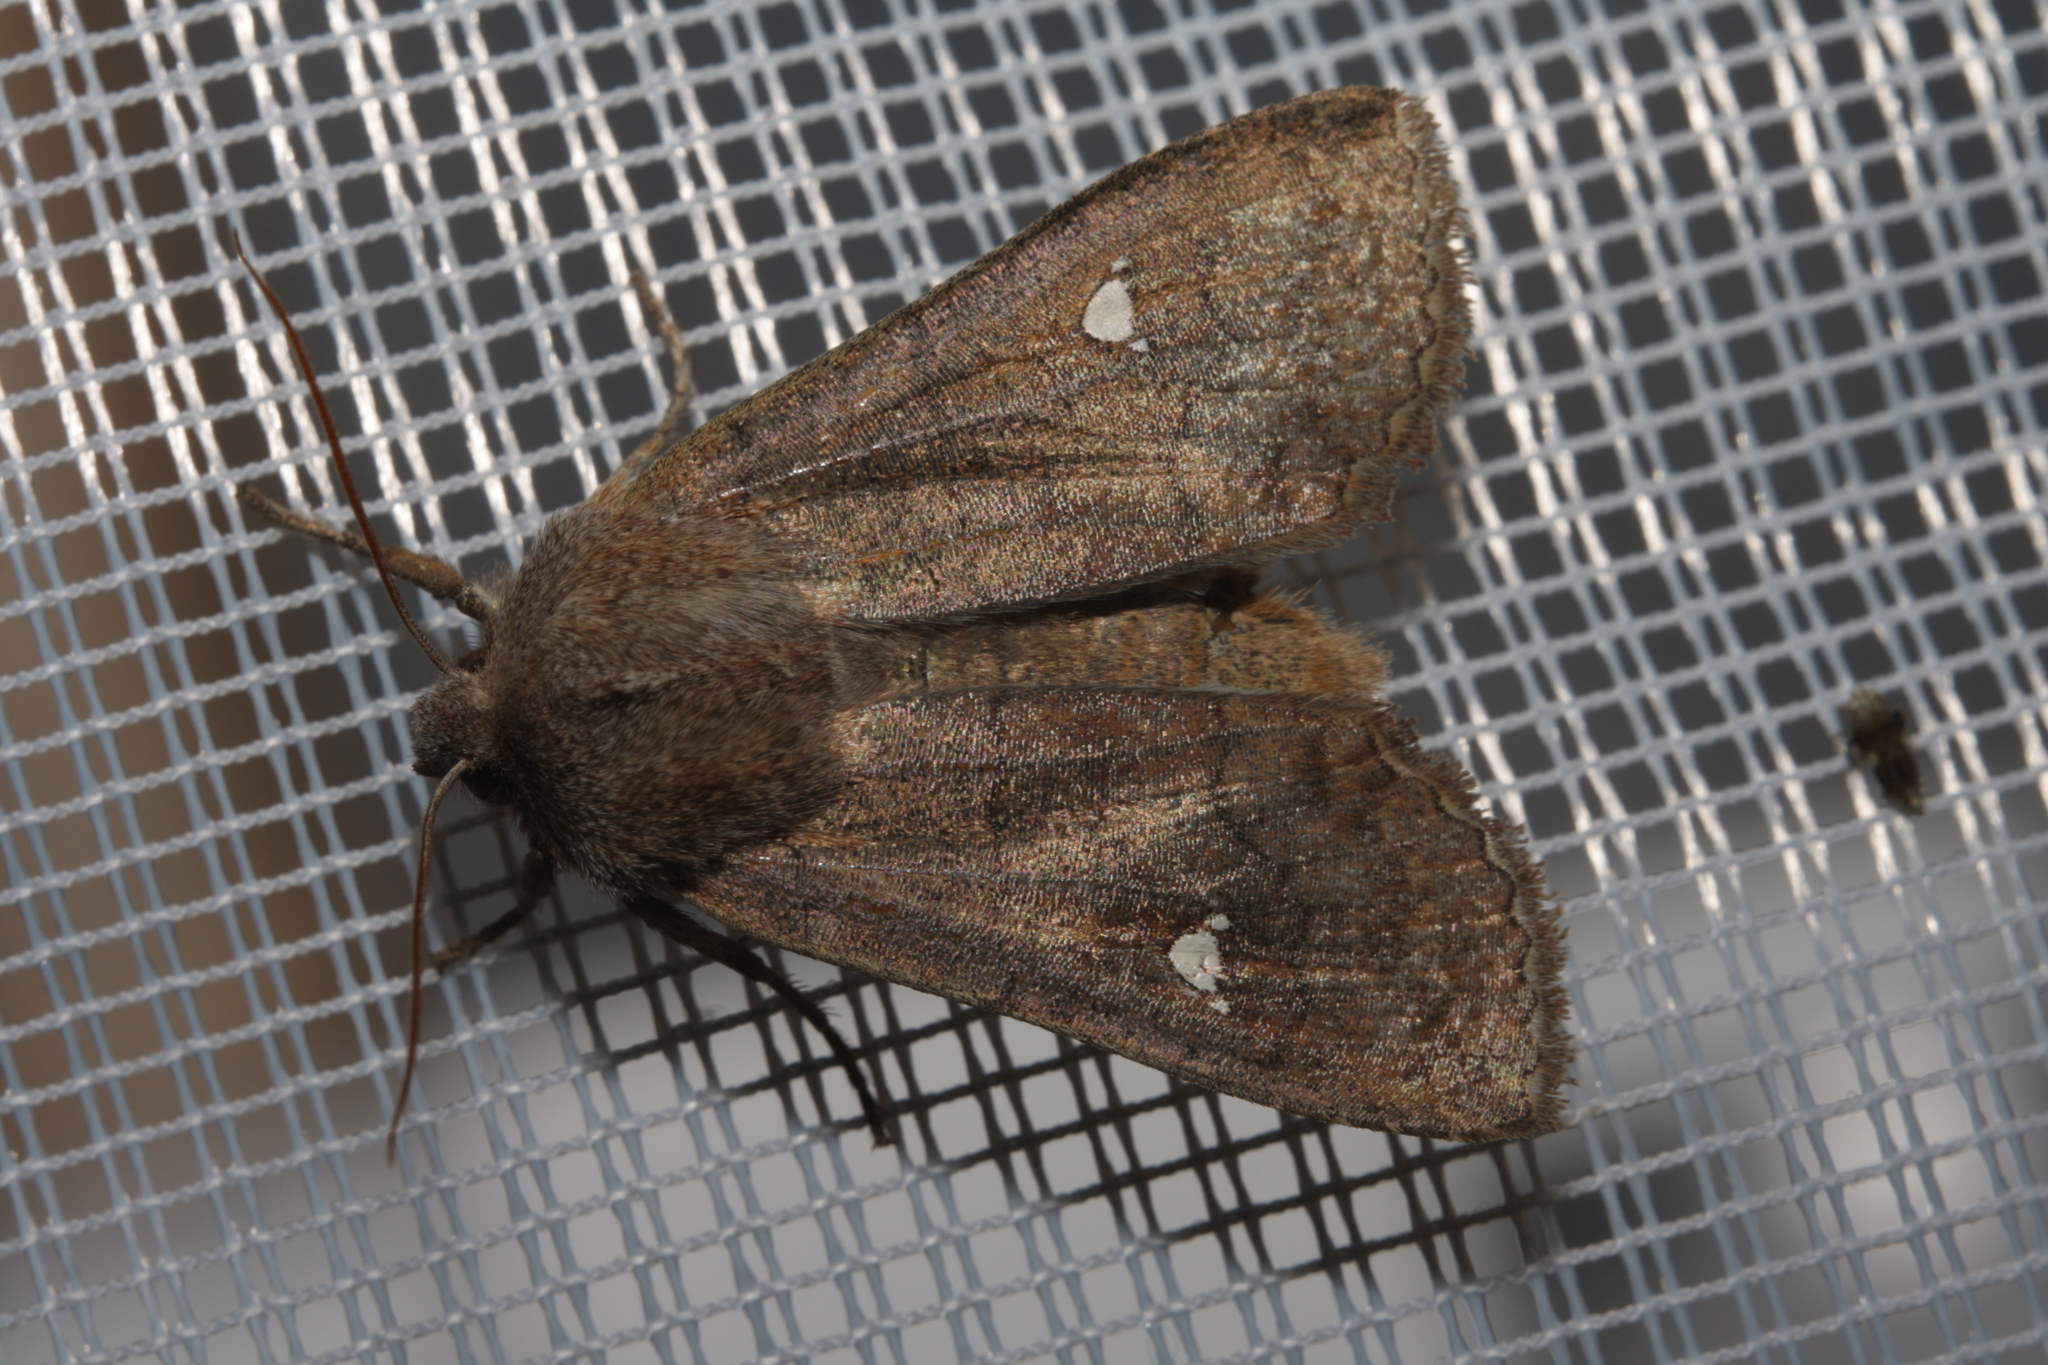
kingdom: Animalia
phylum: Arthropoda
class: Insecta
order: Lepidoptera
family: Noctuidae
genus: Eupsilia
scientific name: Eupsilia transversa
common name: Satellite
